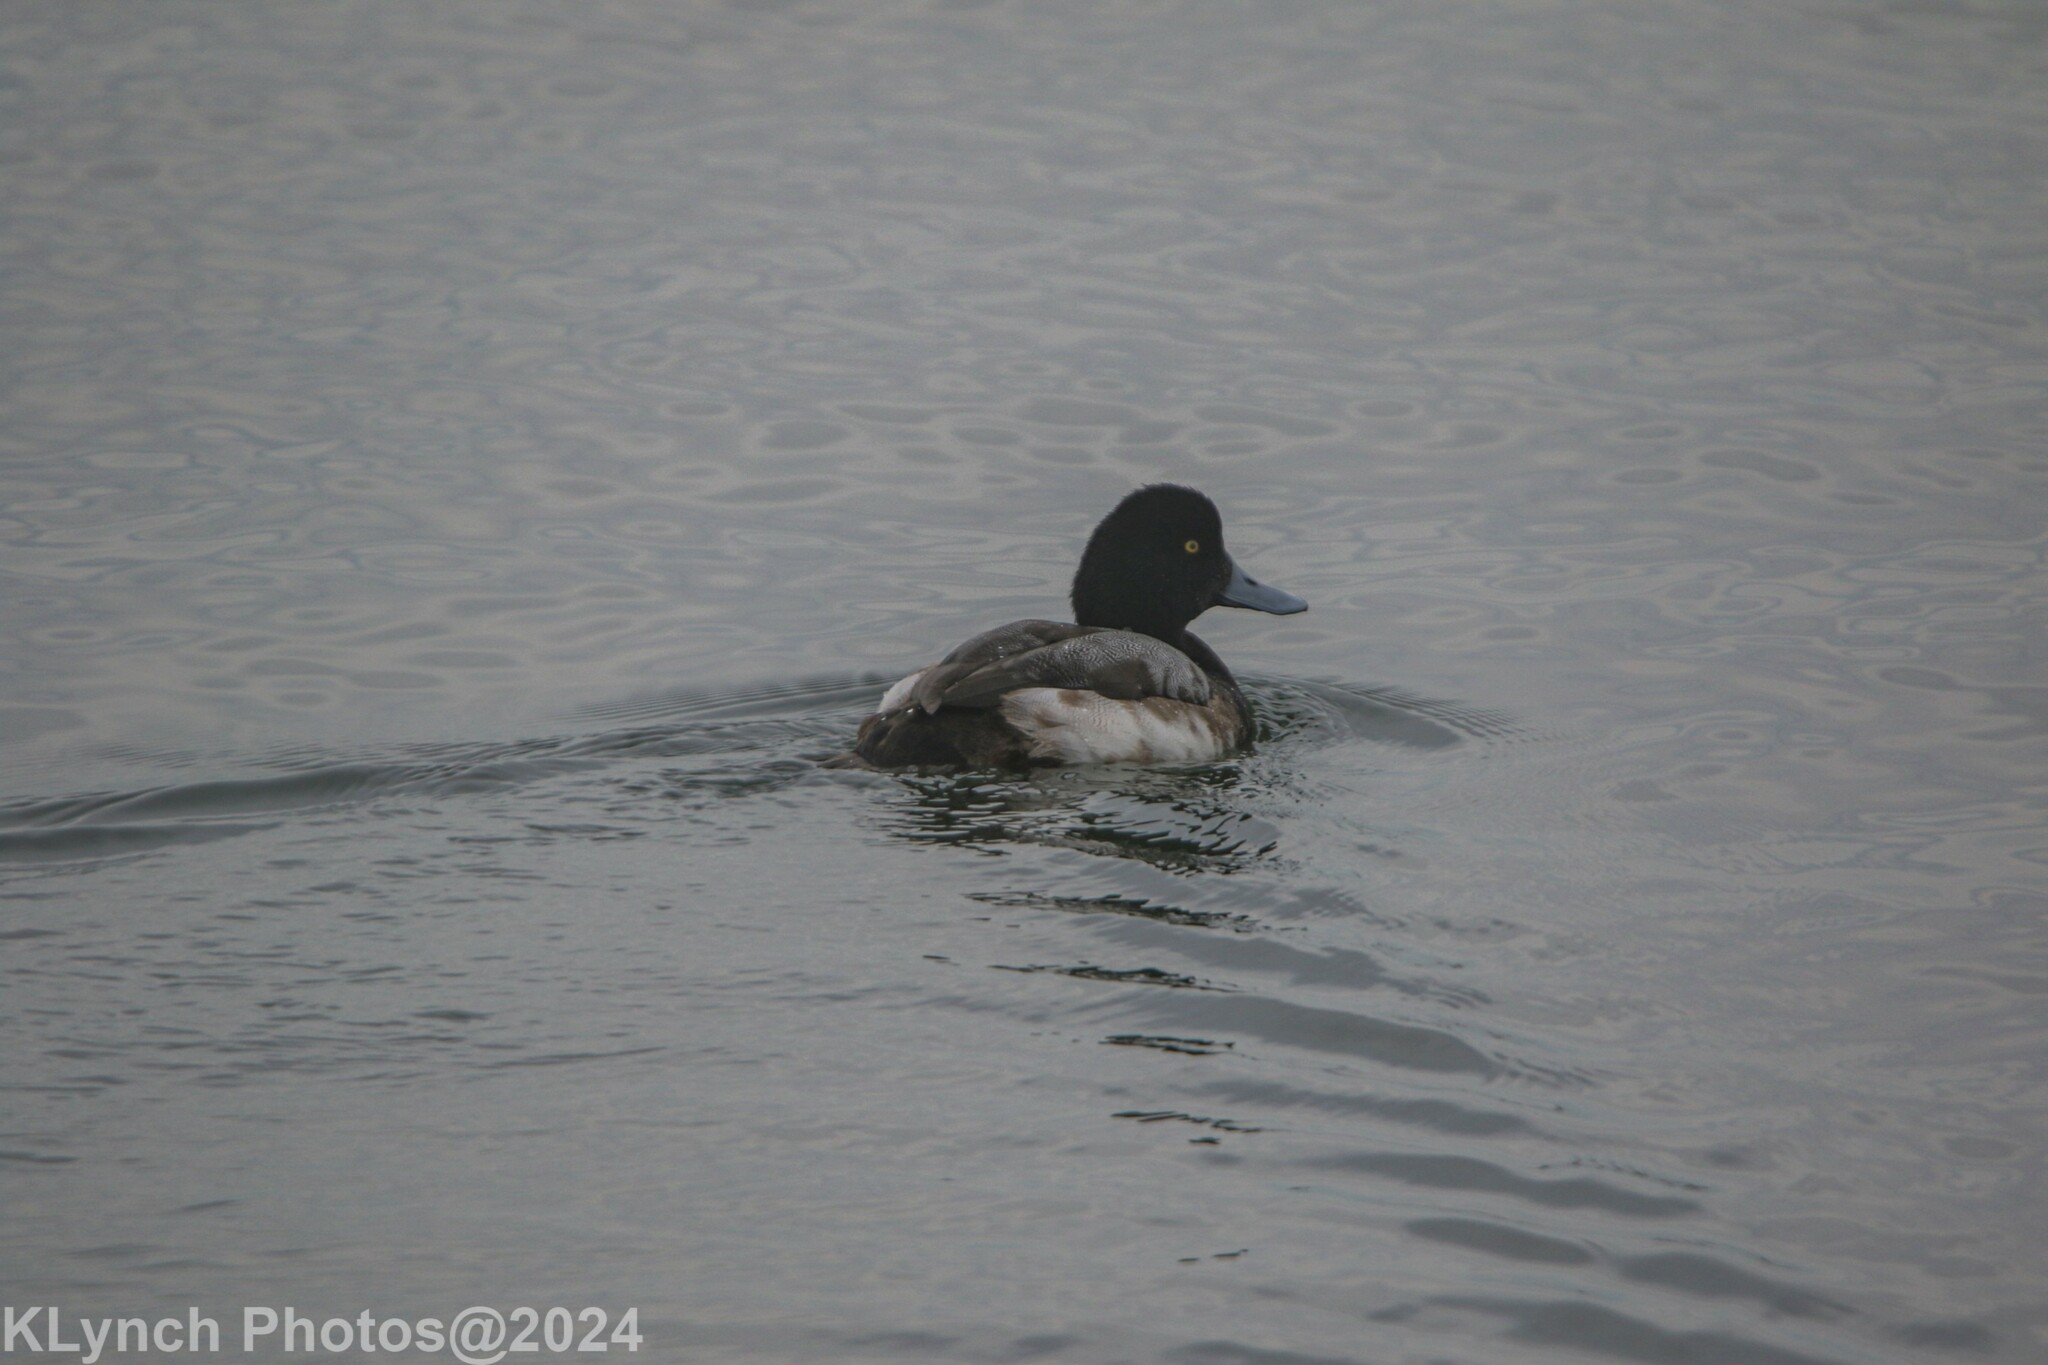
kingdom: Animalia
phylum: Chordata
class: Aves
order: Anseriformes
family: Anatidae
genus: Aythya
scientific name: Aythya marila
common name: Greater scaup
